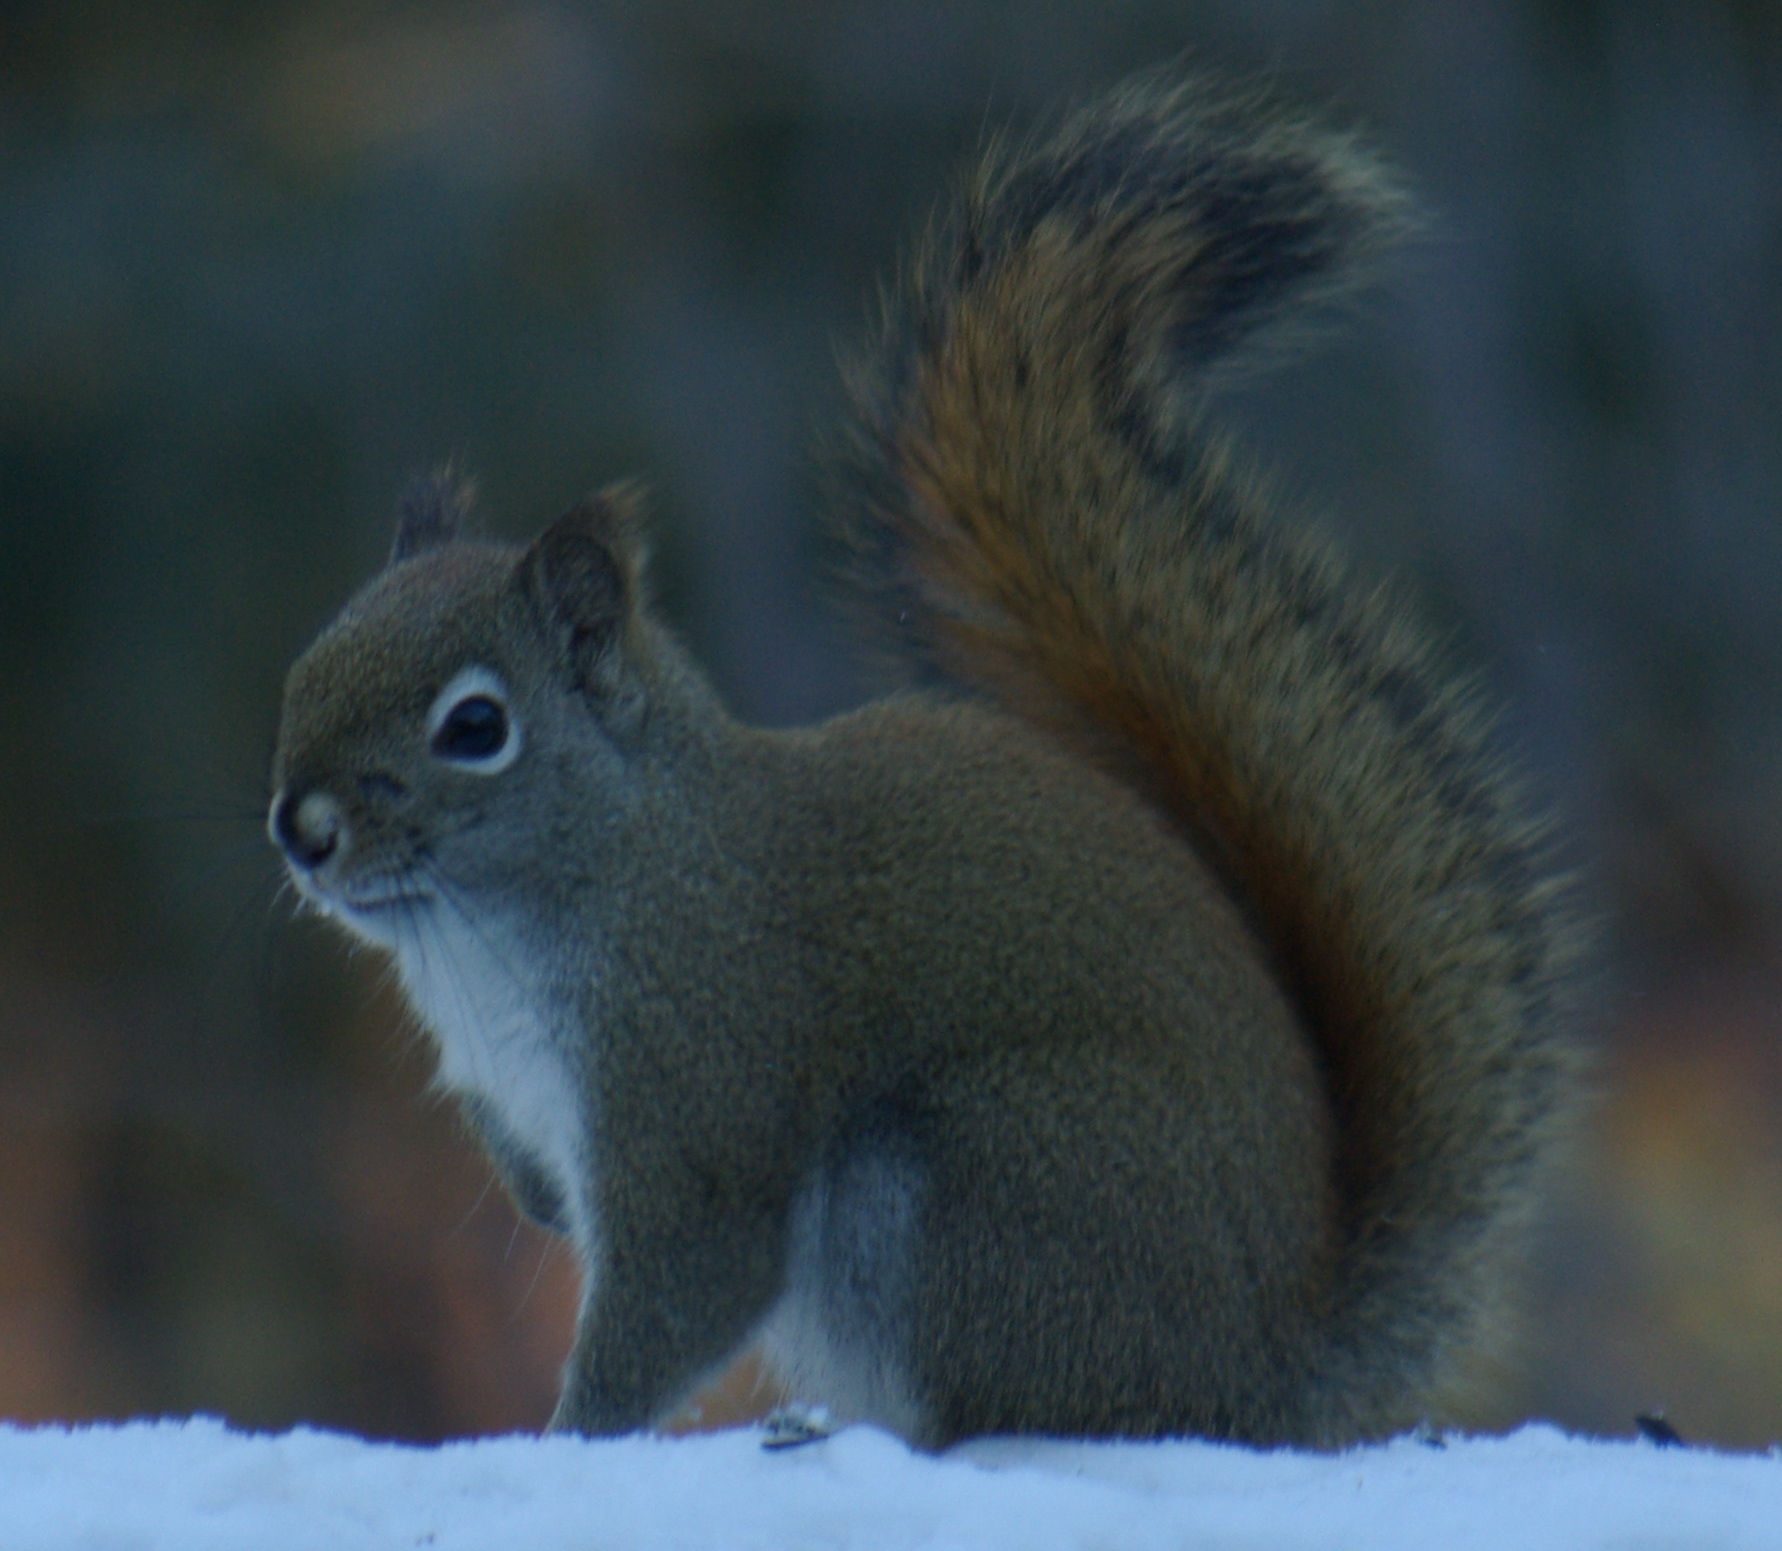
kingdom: Animalia
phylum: Chordata
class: Mammalia
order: Rodentia
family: Sciuridae
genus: Tamiasciurus
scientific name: Tamiasciurus hudsonicus
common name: Red squirrel
